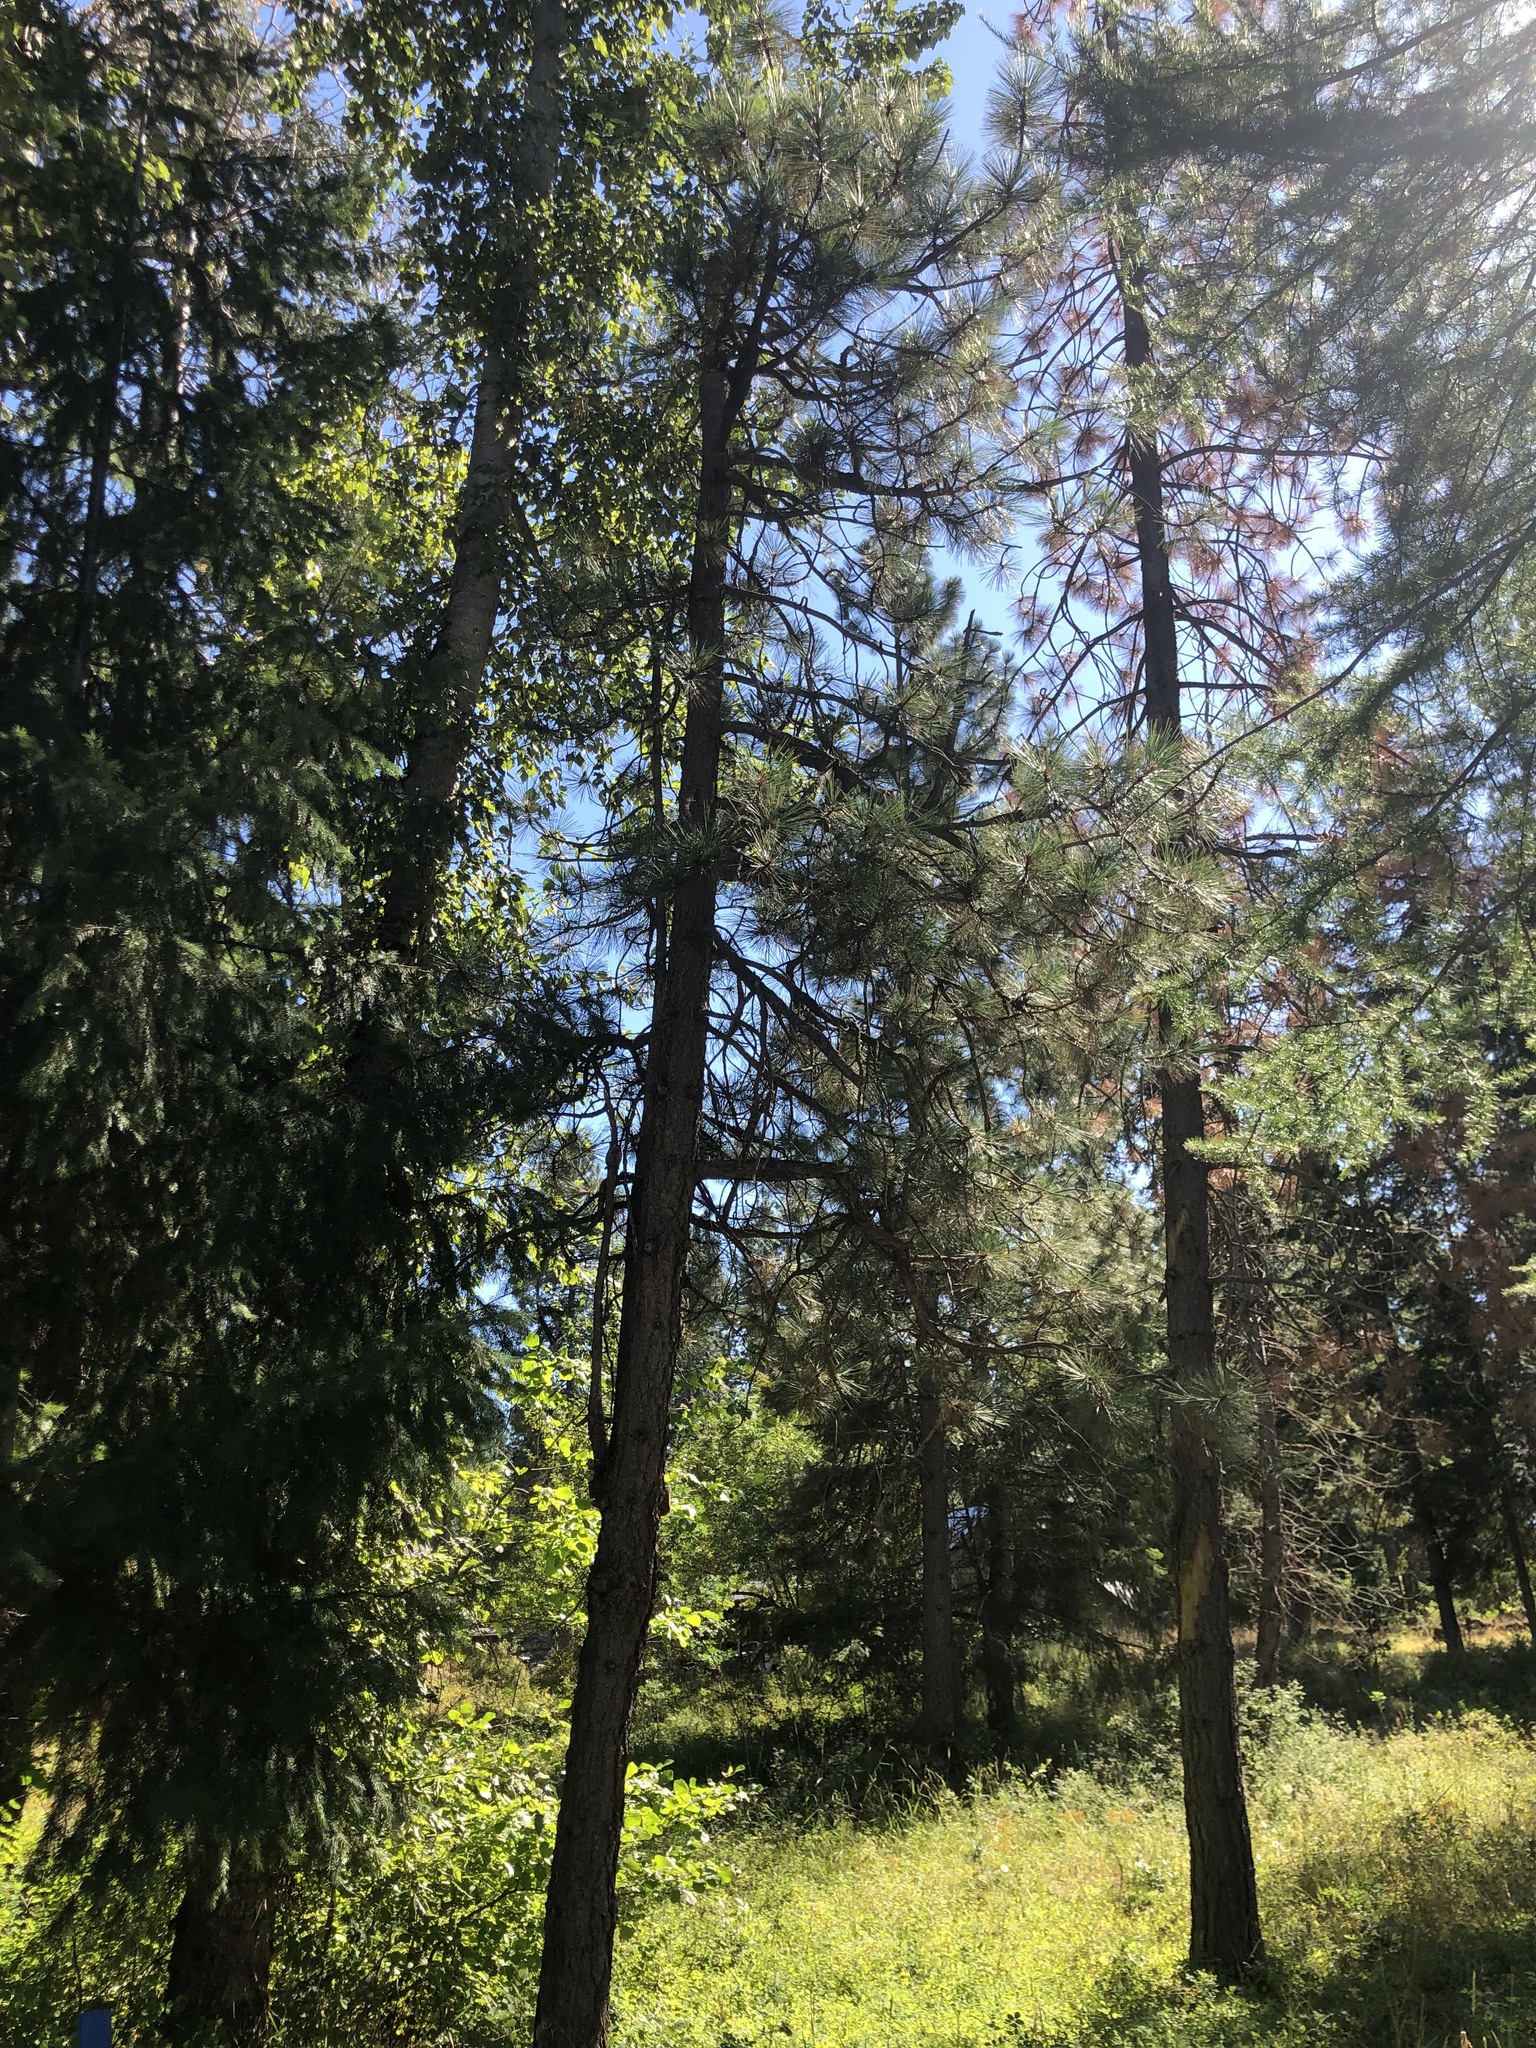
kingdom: Plantae
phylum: Tracheophyta
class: Pinopsida
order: Pinales
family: Pinaceae
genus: Pinus
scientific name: Pinus ponderosa
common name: Western yellow-pine
